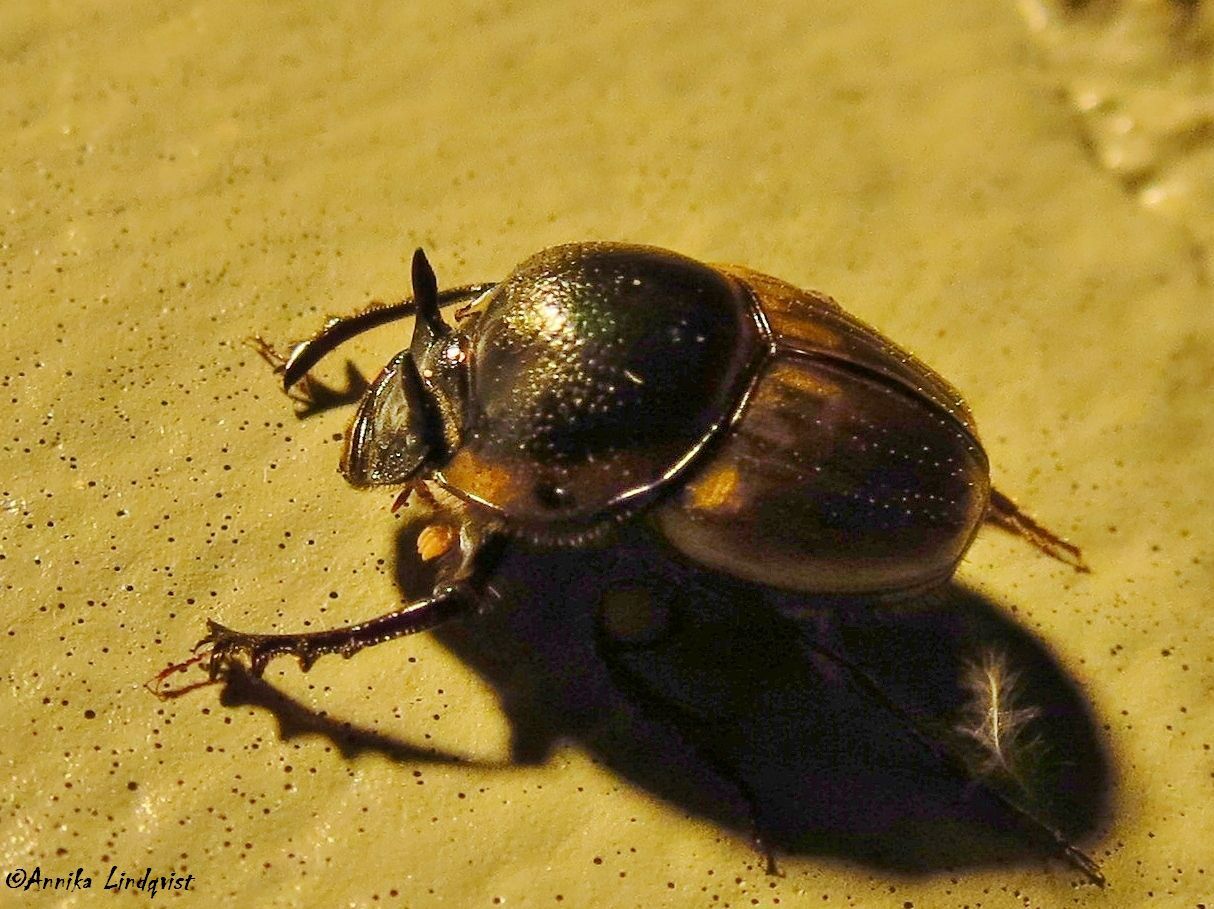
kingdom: Animalia
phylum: Arthropoda
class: Insecta
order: Coleoptera
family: Scarabaeidae
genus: Digitonthophagus
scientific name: Digitonthophagus gazella
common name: Brown dung beetle
